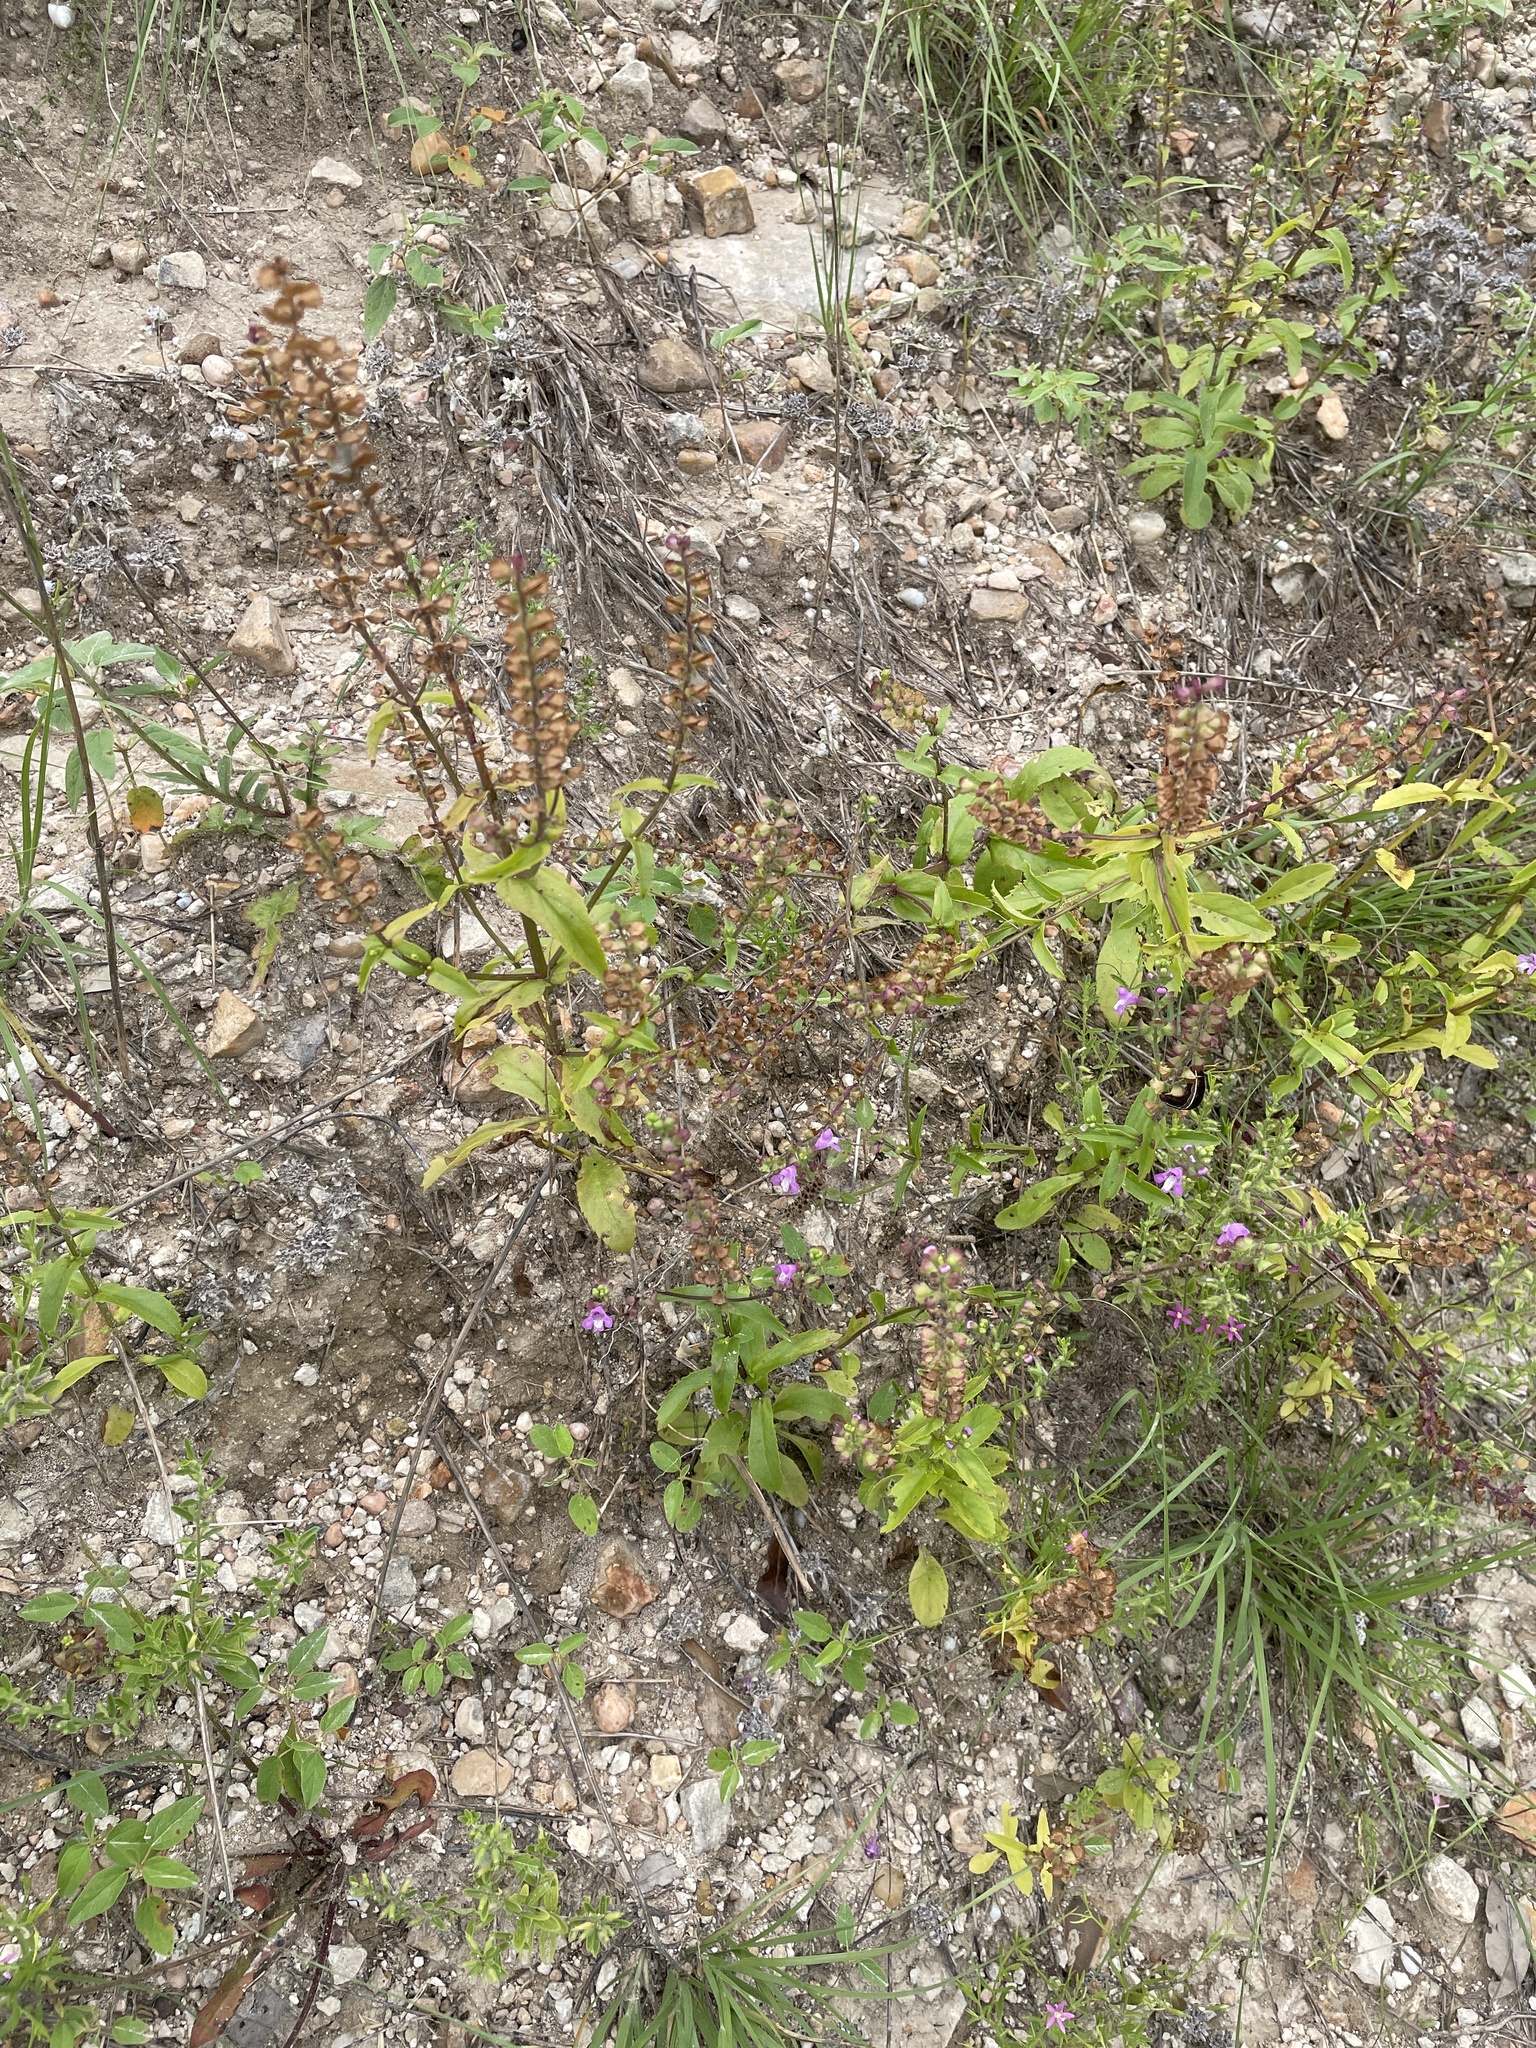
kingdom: Plantae
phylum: Tracheophyta
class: Magnoliopsida
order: Lamiales
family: Lamiaceae
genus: Warnockia
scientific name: Warnockia scutellarioides
